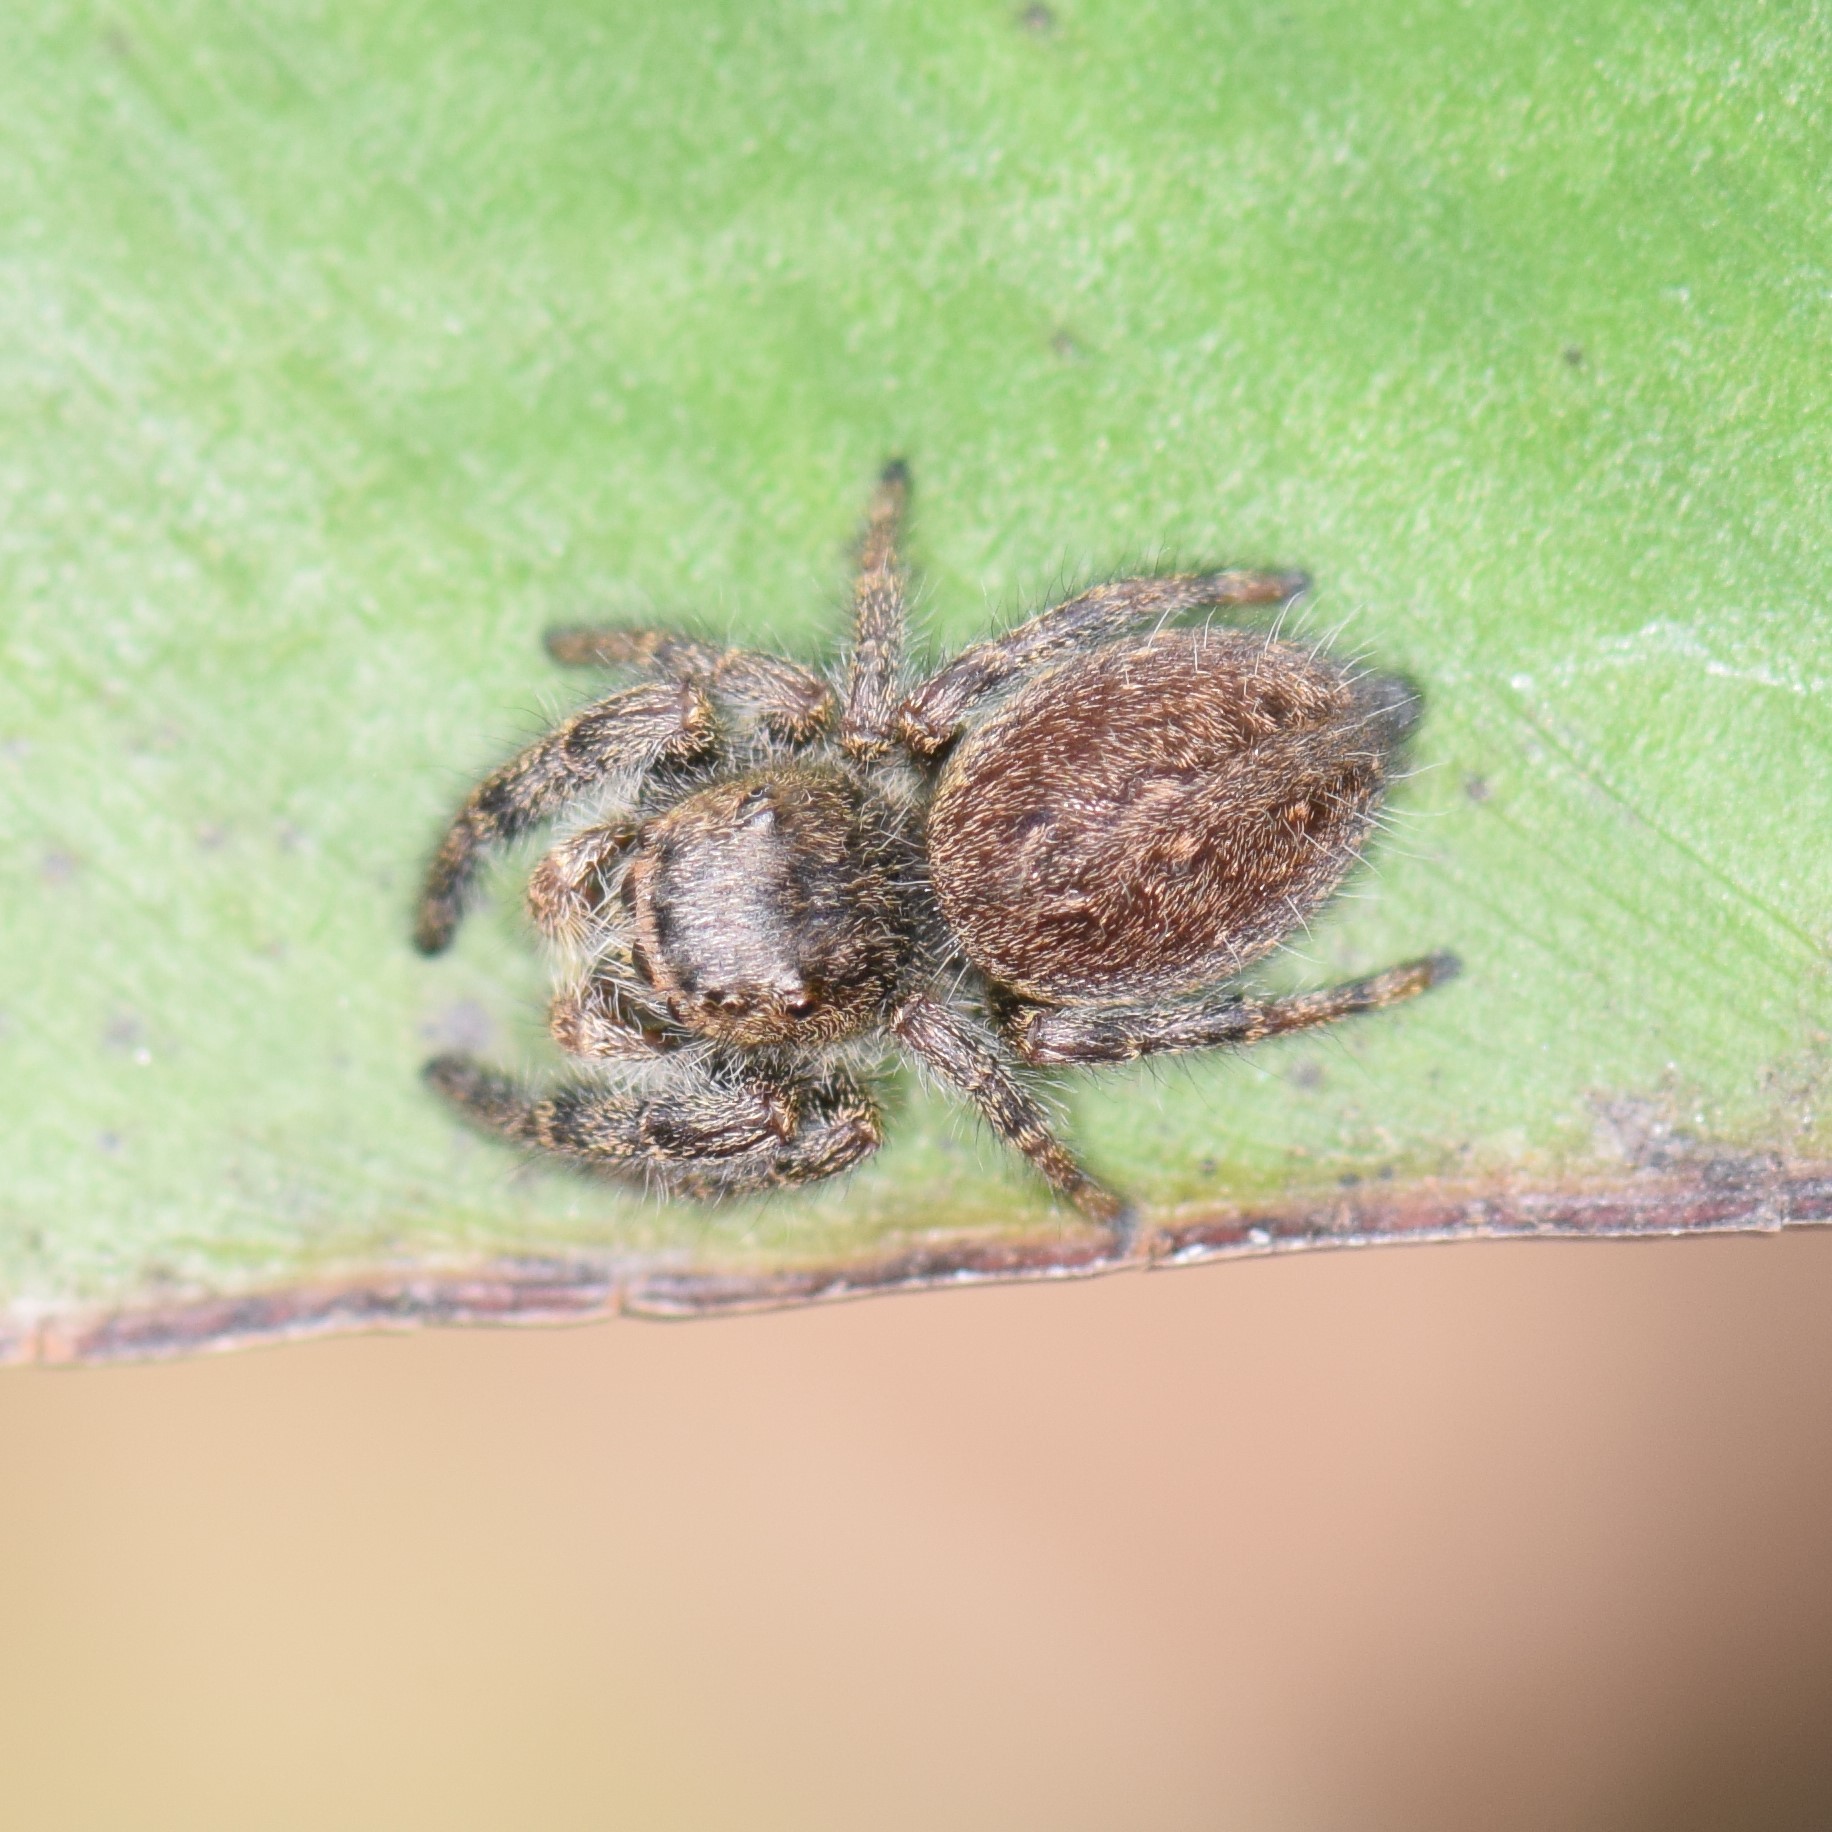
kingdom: Animalia
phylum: Arthropoda
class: Arachnida
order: Araneae
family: Salticidae
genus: Phidippus
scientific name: Phidippus princeps
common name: Grayish jumping spider
